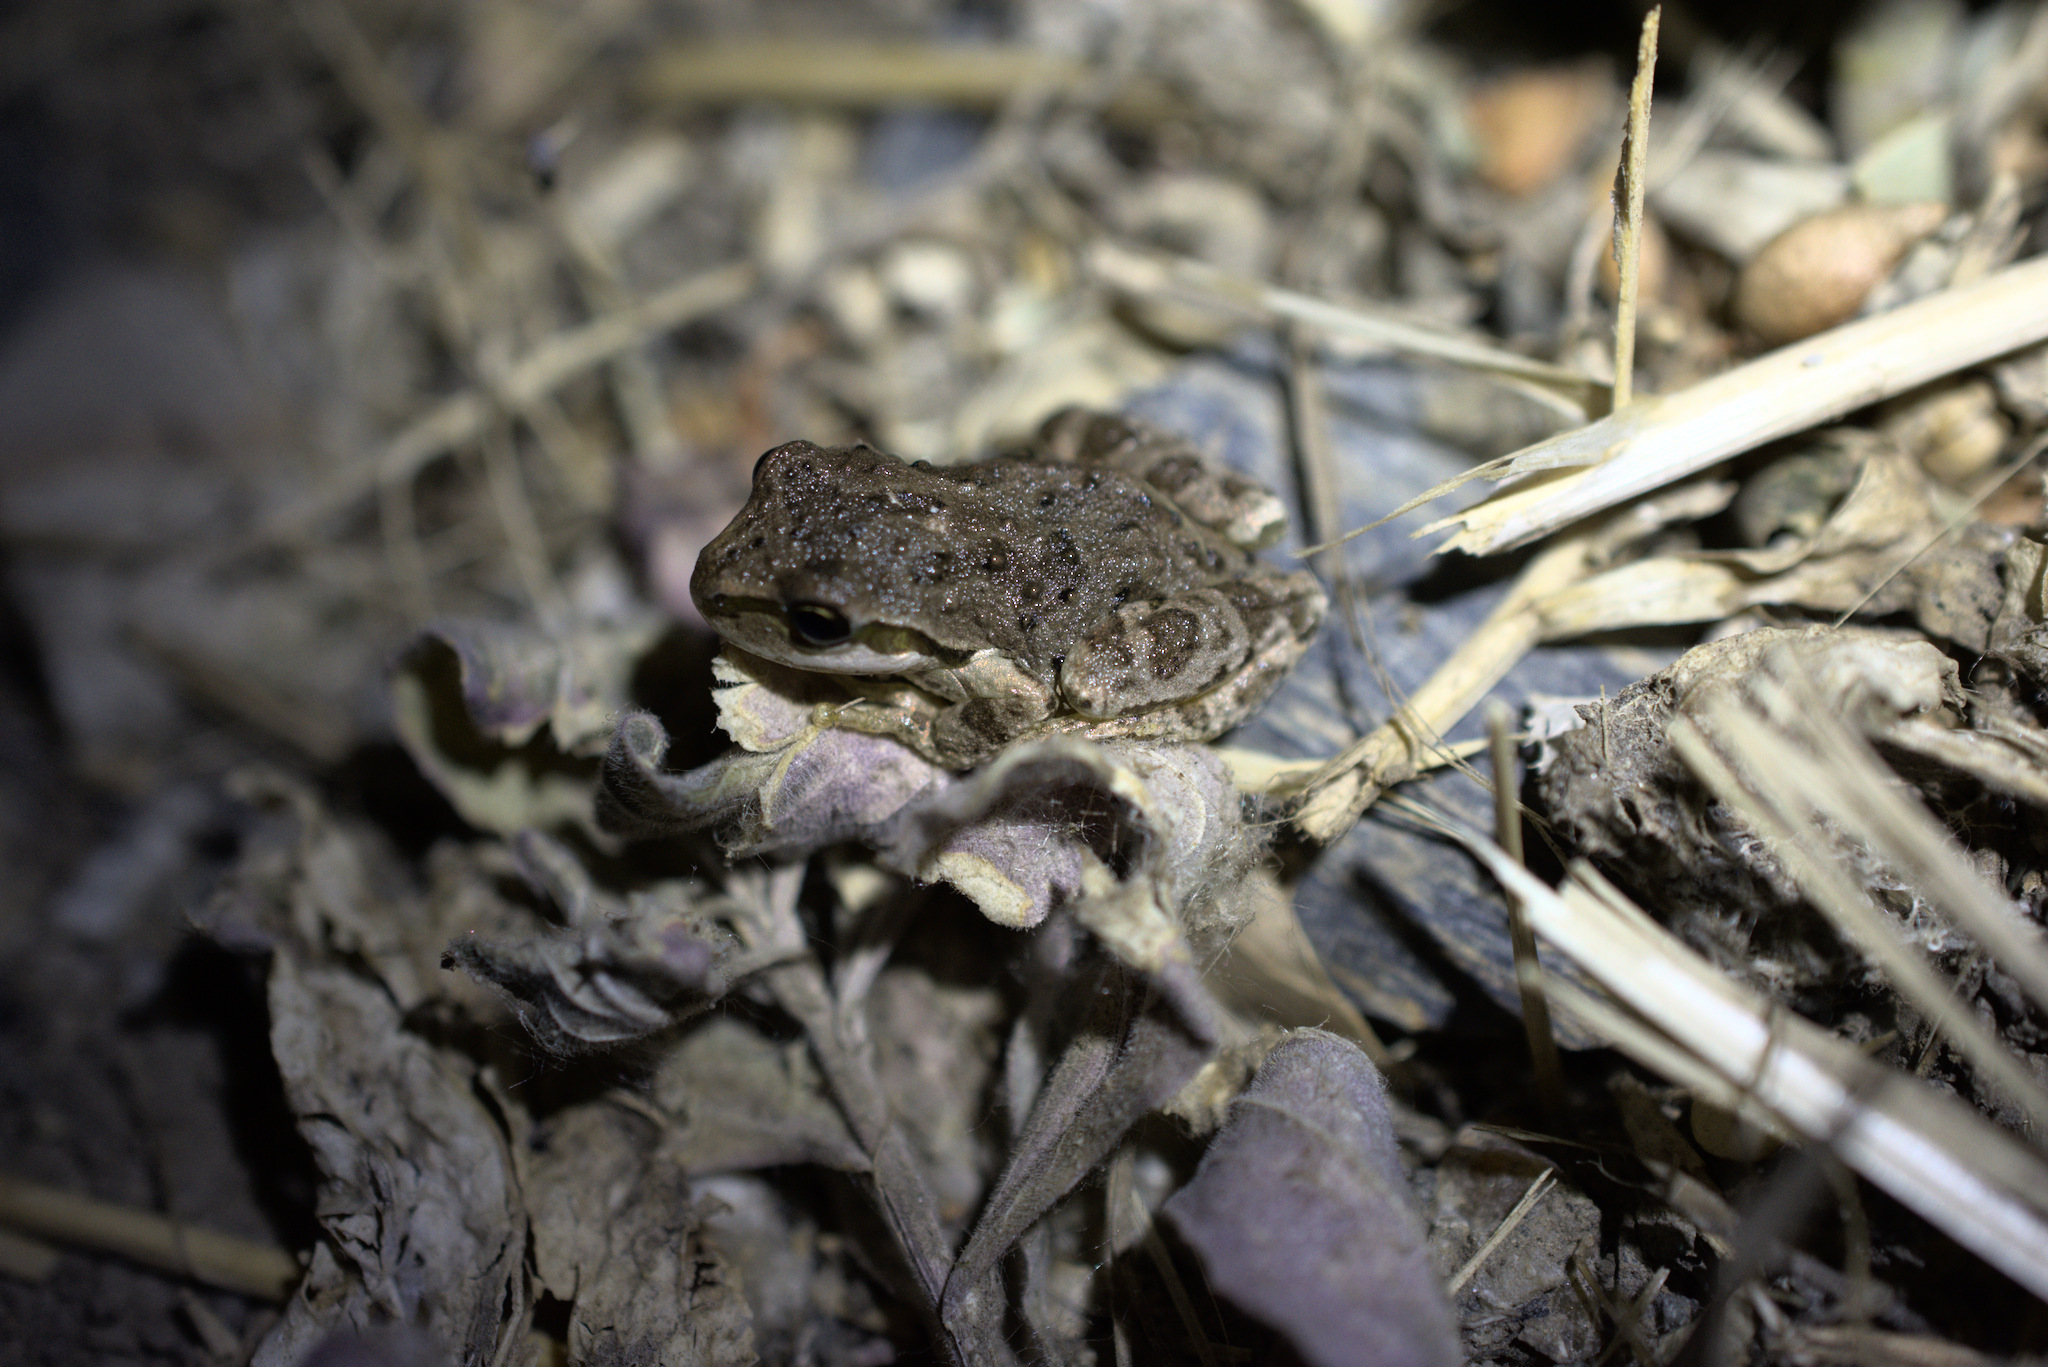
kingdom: Animalia
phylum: Chordata
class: Amphibia
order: Anura
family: Hylidae
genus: Pseudacris
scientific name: Pseudacris regilla
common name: Pacific chorus frog
